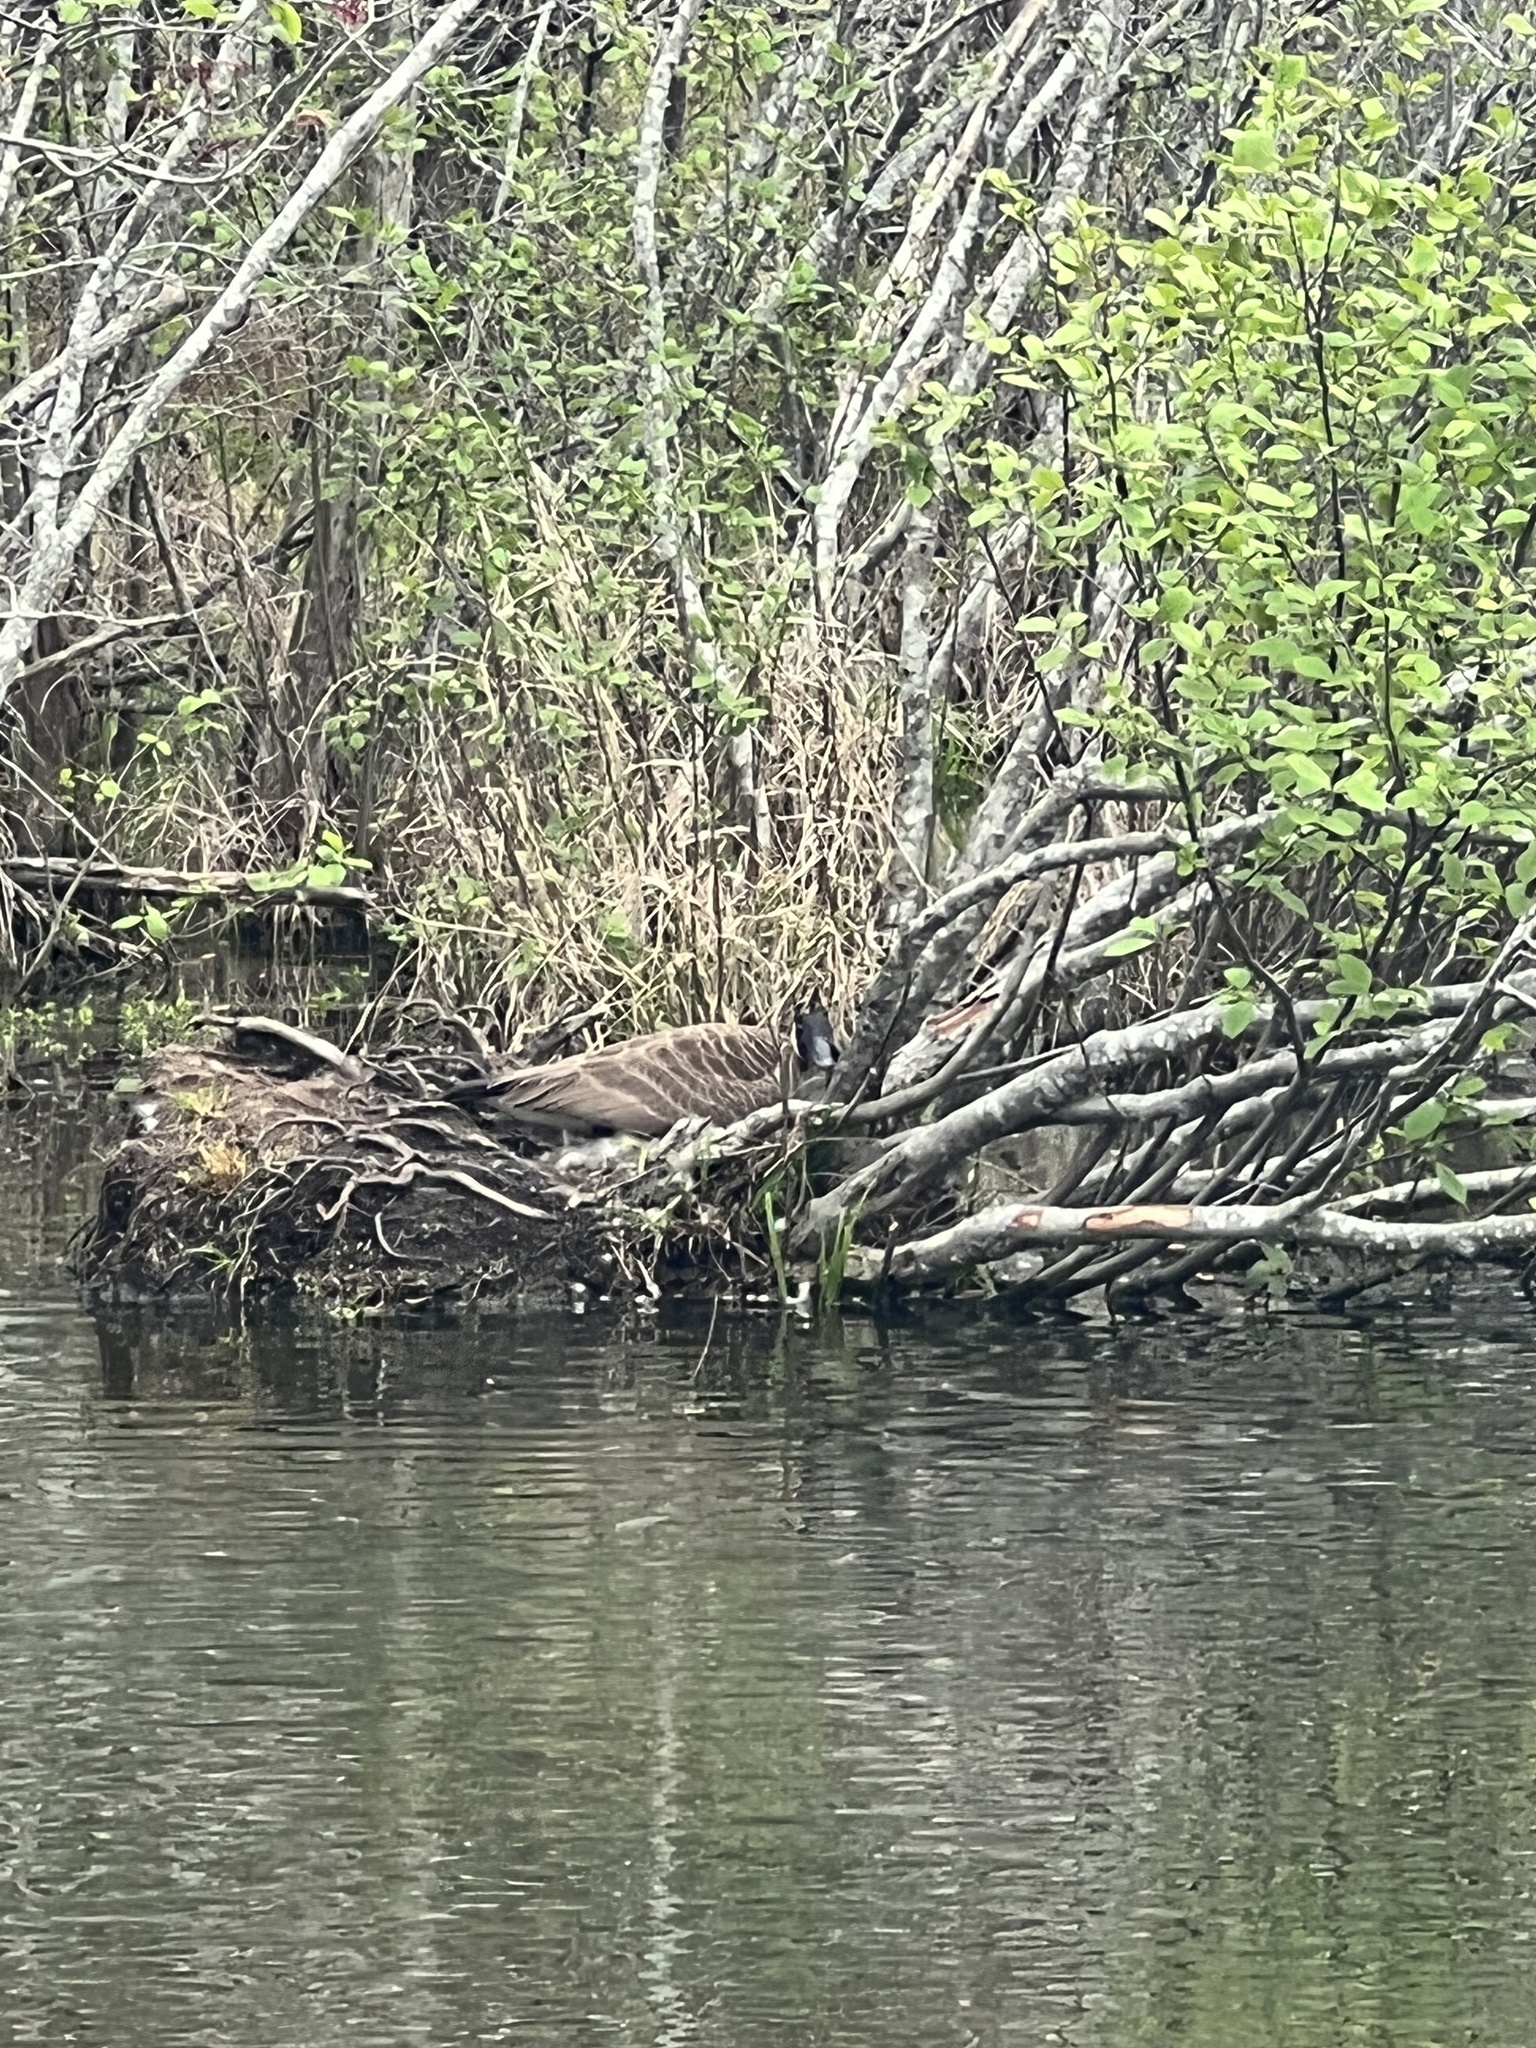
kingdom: Animalia
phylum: Chordata
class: Aves
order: Anseriformes
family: Anatidae
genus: Branta
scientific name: Branta canadensis
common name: Canada goose
